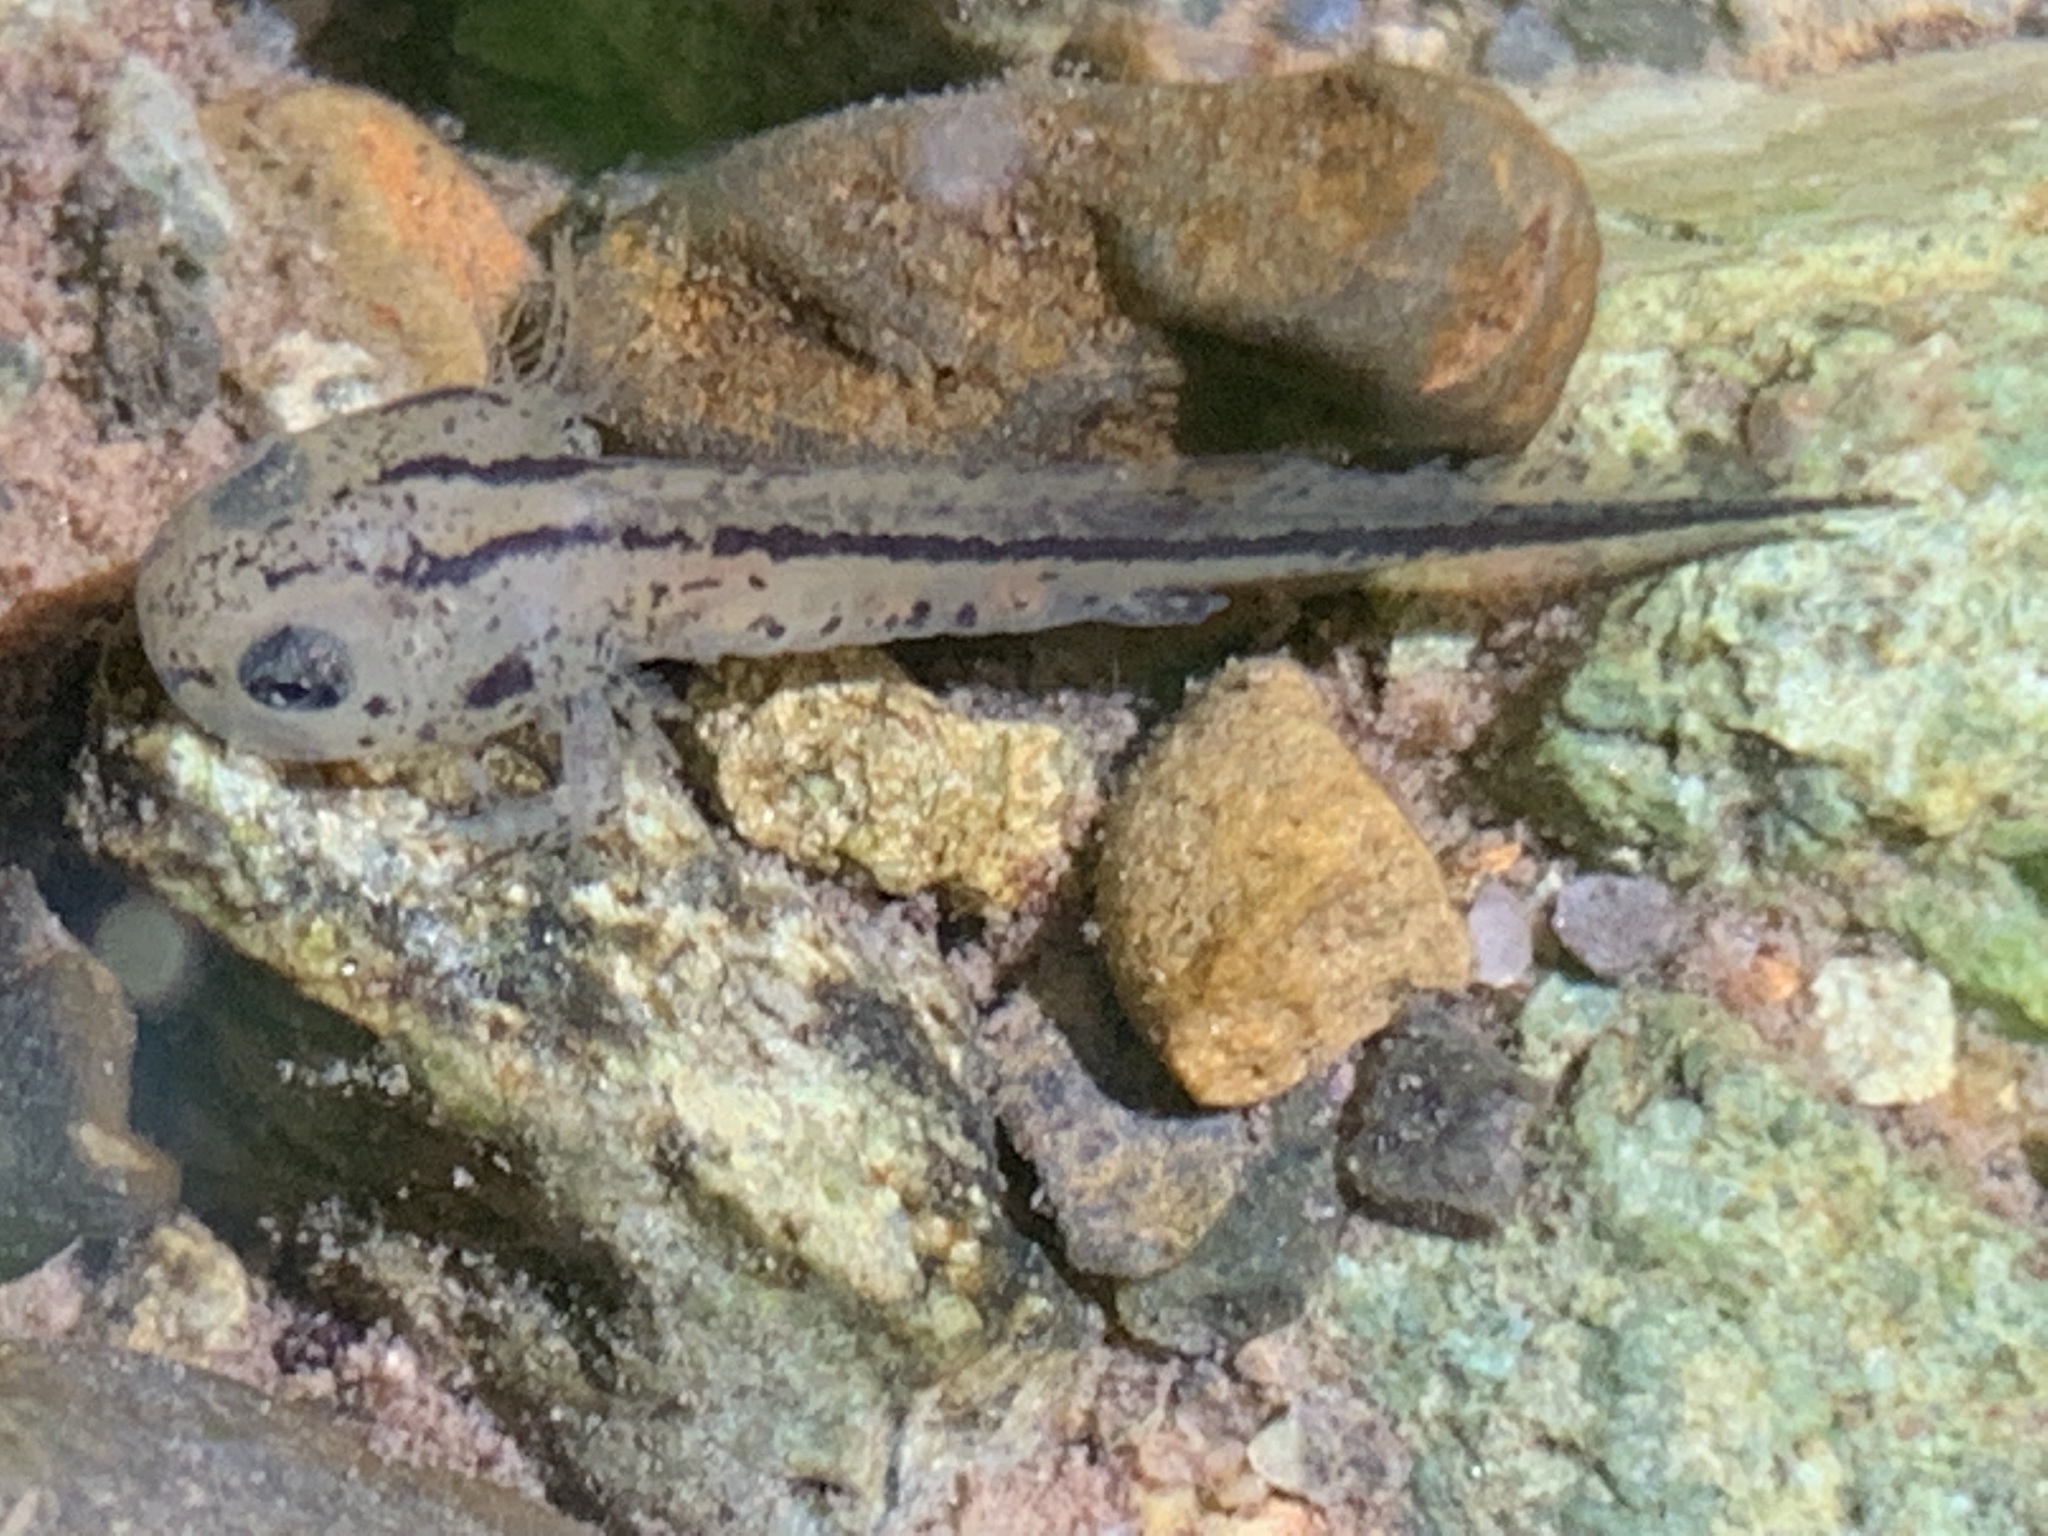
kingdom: Animalia
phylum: Chordata
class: Amphibia
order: Caudata
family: Salamandridae
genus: Taricha
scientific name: Taricha torosa
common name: California newt
